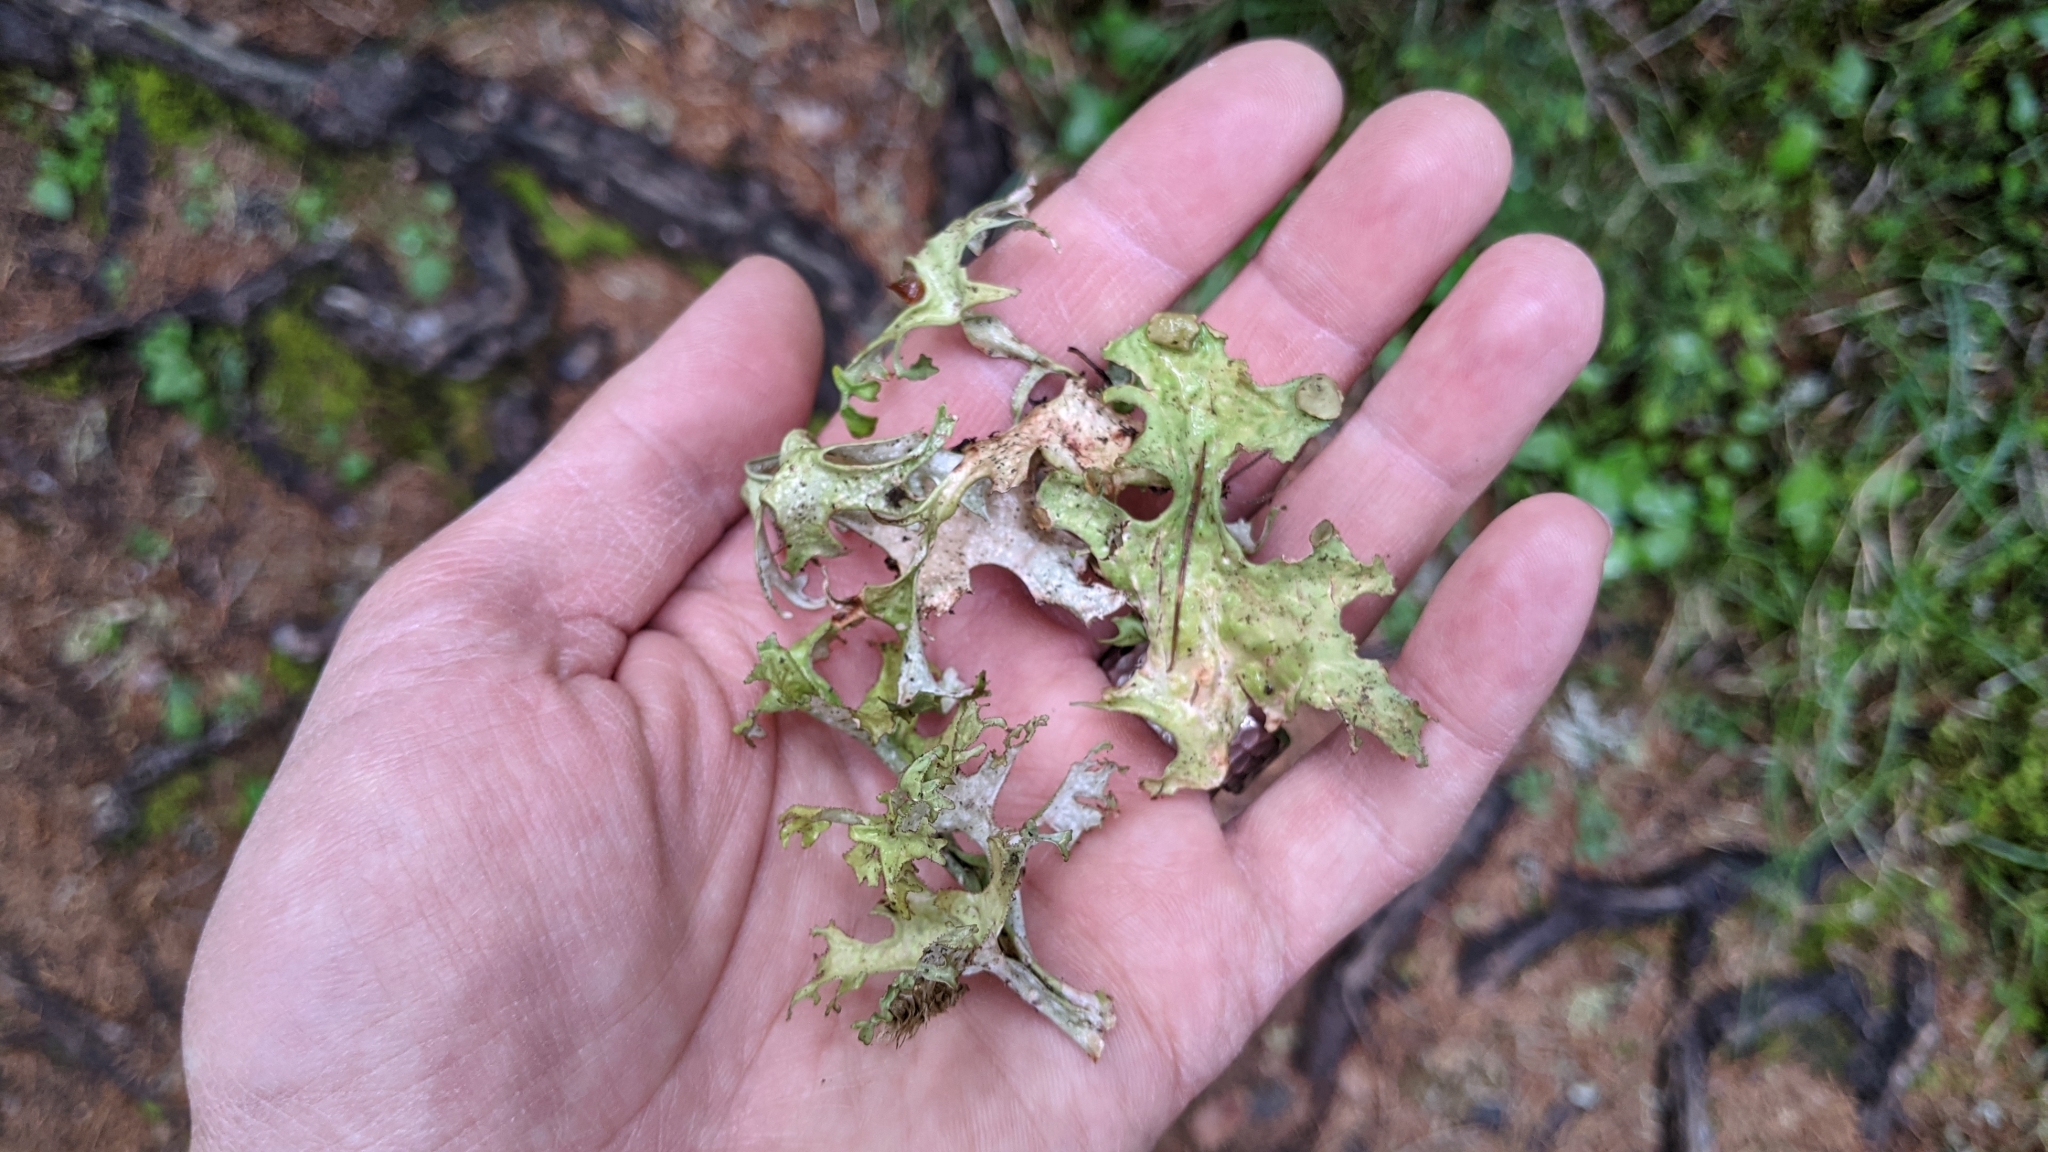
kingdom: Fungi
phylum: Ascomycota
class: Lecanoromycetes
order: Lecanorales
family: Parmeliaceae
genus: Cetraria
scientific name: Cetraria islandica
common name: Iceland lichen
